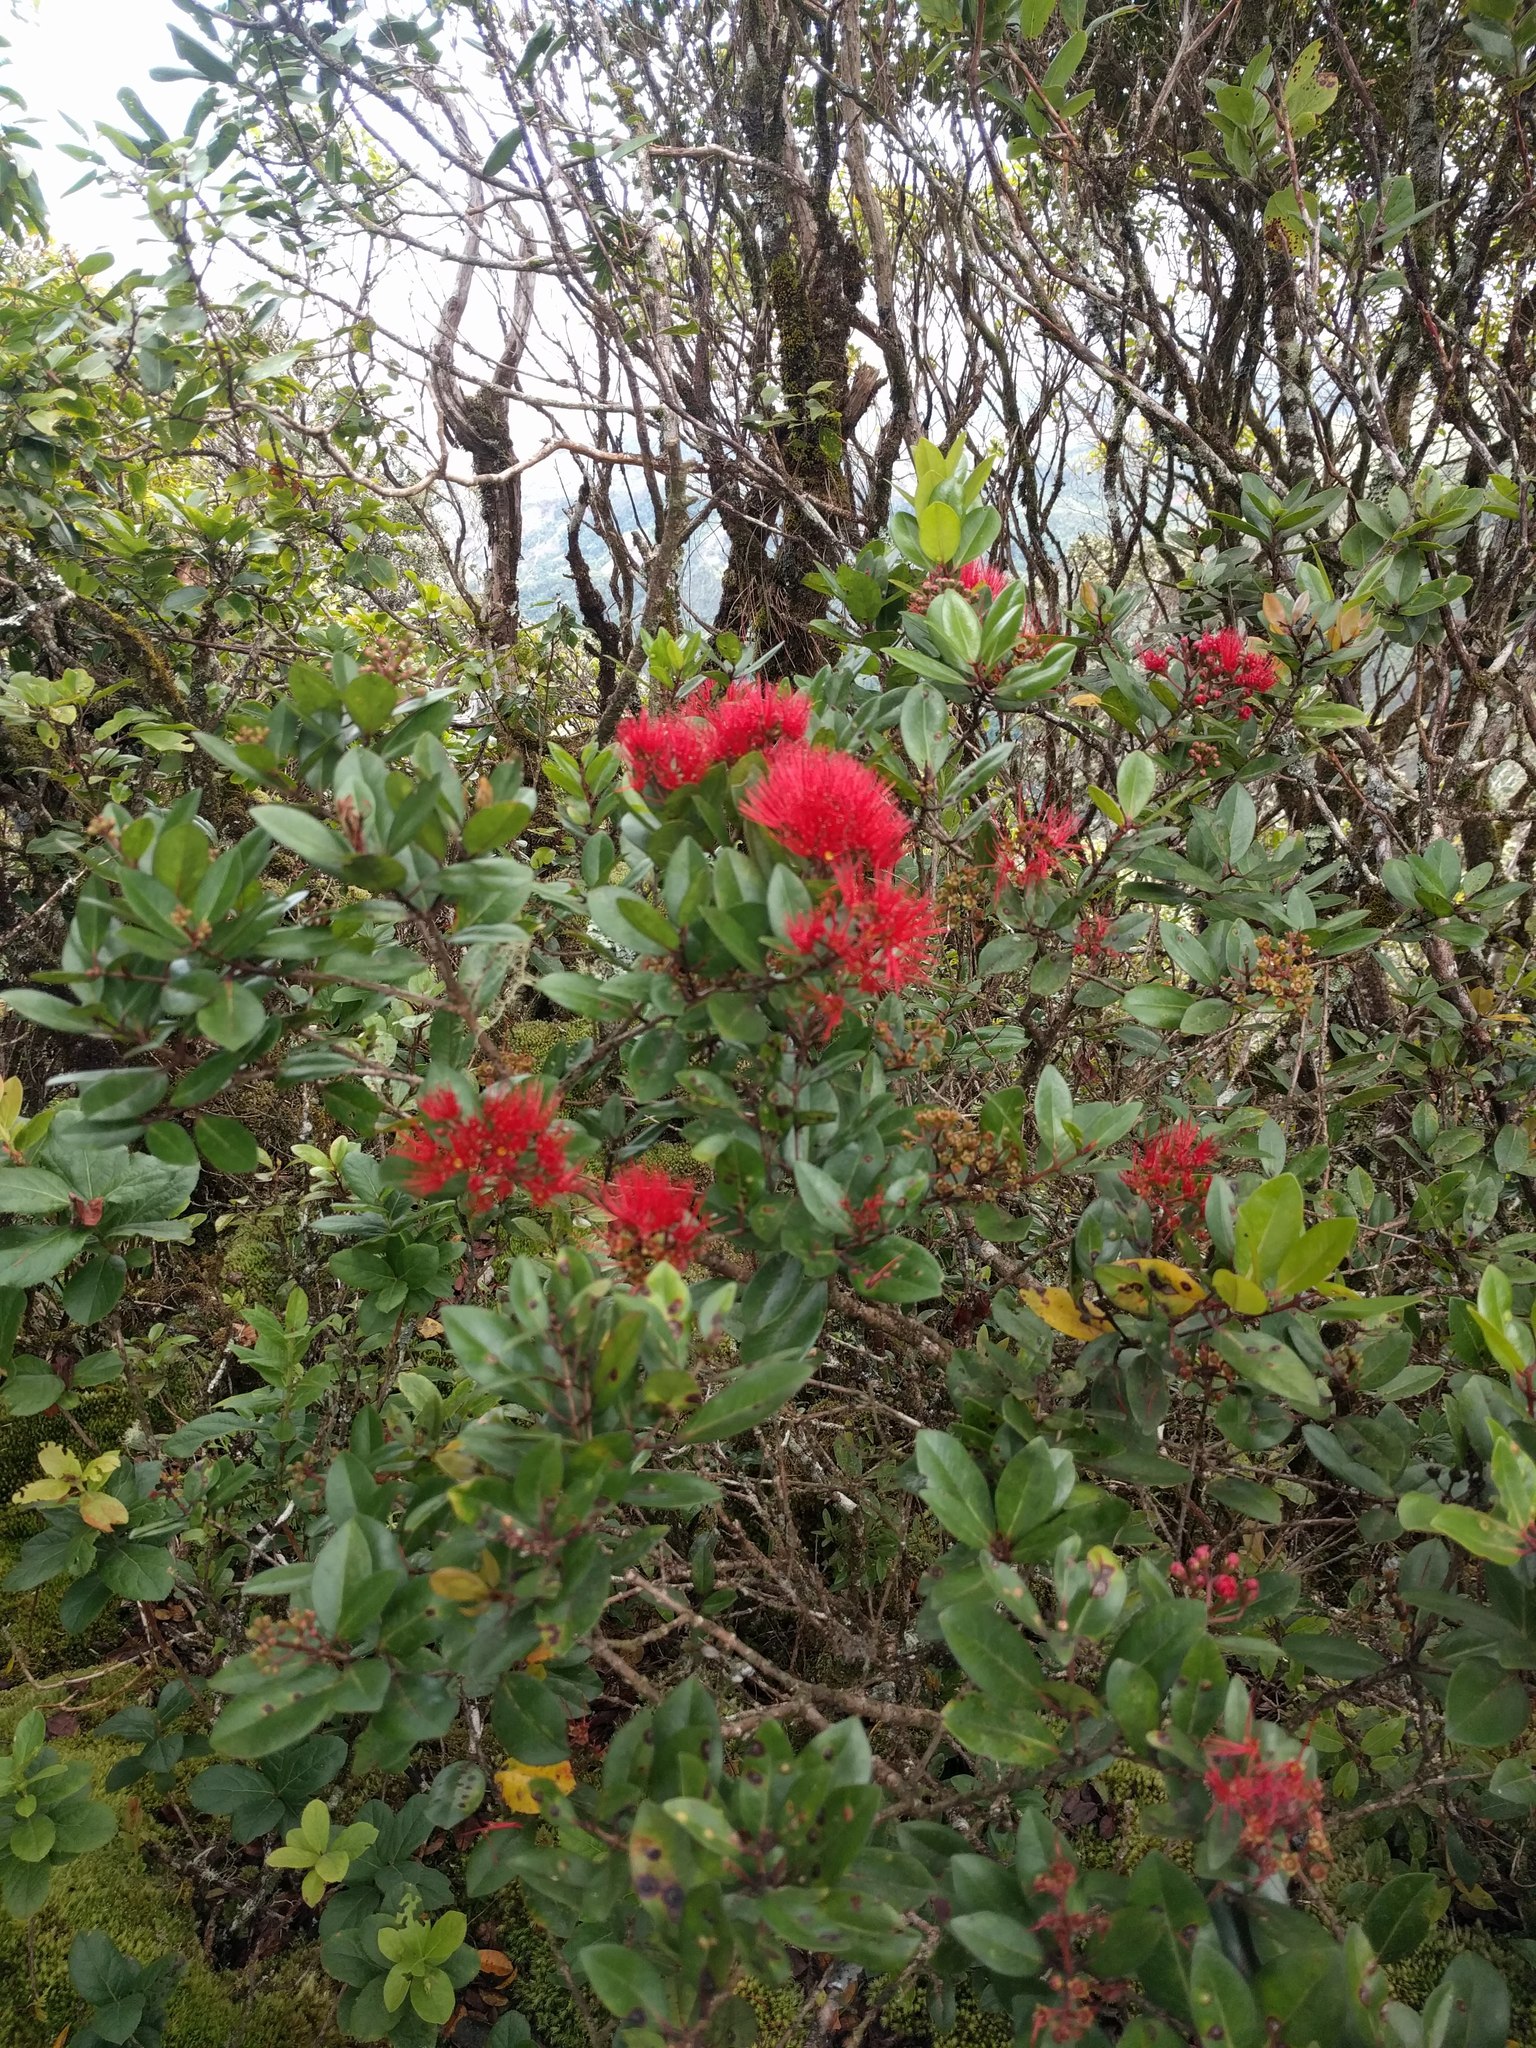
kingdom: Plantae
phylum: Tracheophyta
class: Magnoliopsida
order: Myrtales
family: Myrtaceae
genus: Metrosideros
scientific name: Metrosideros polymorpha
